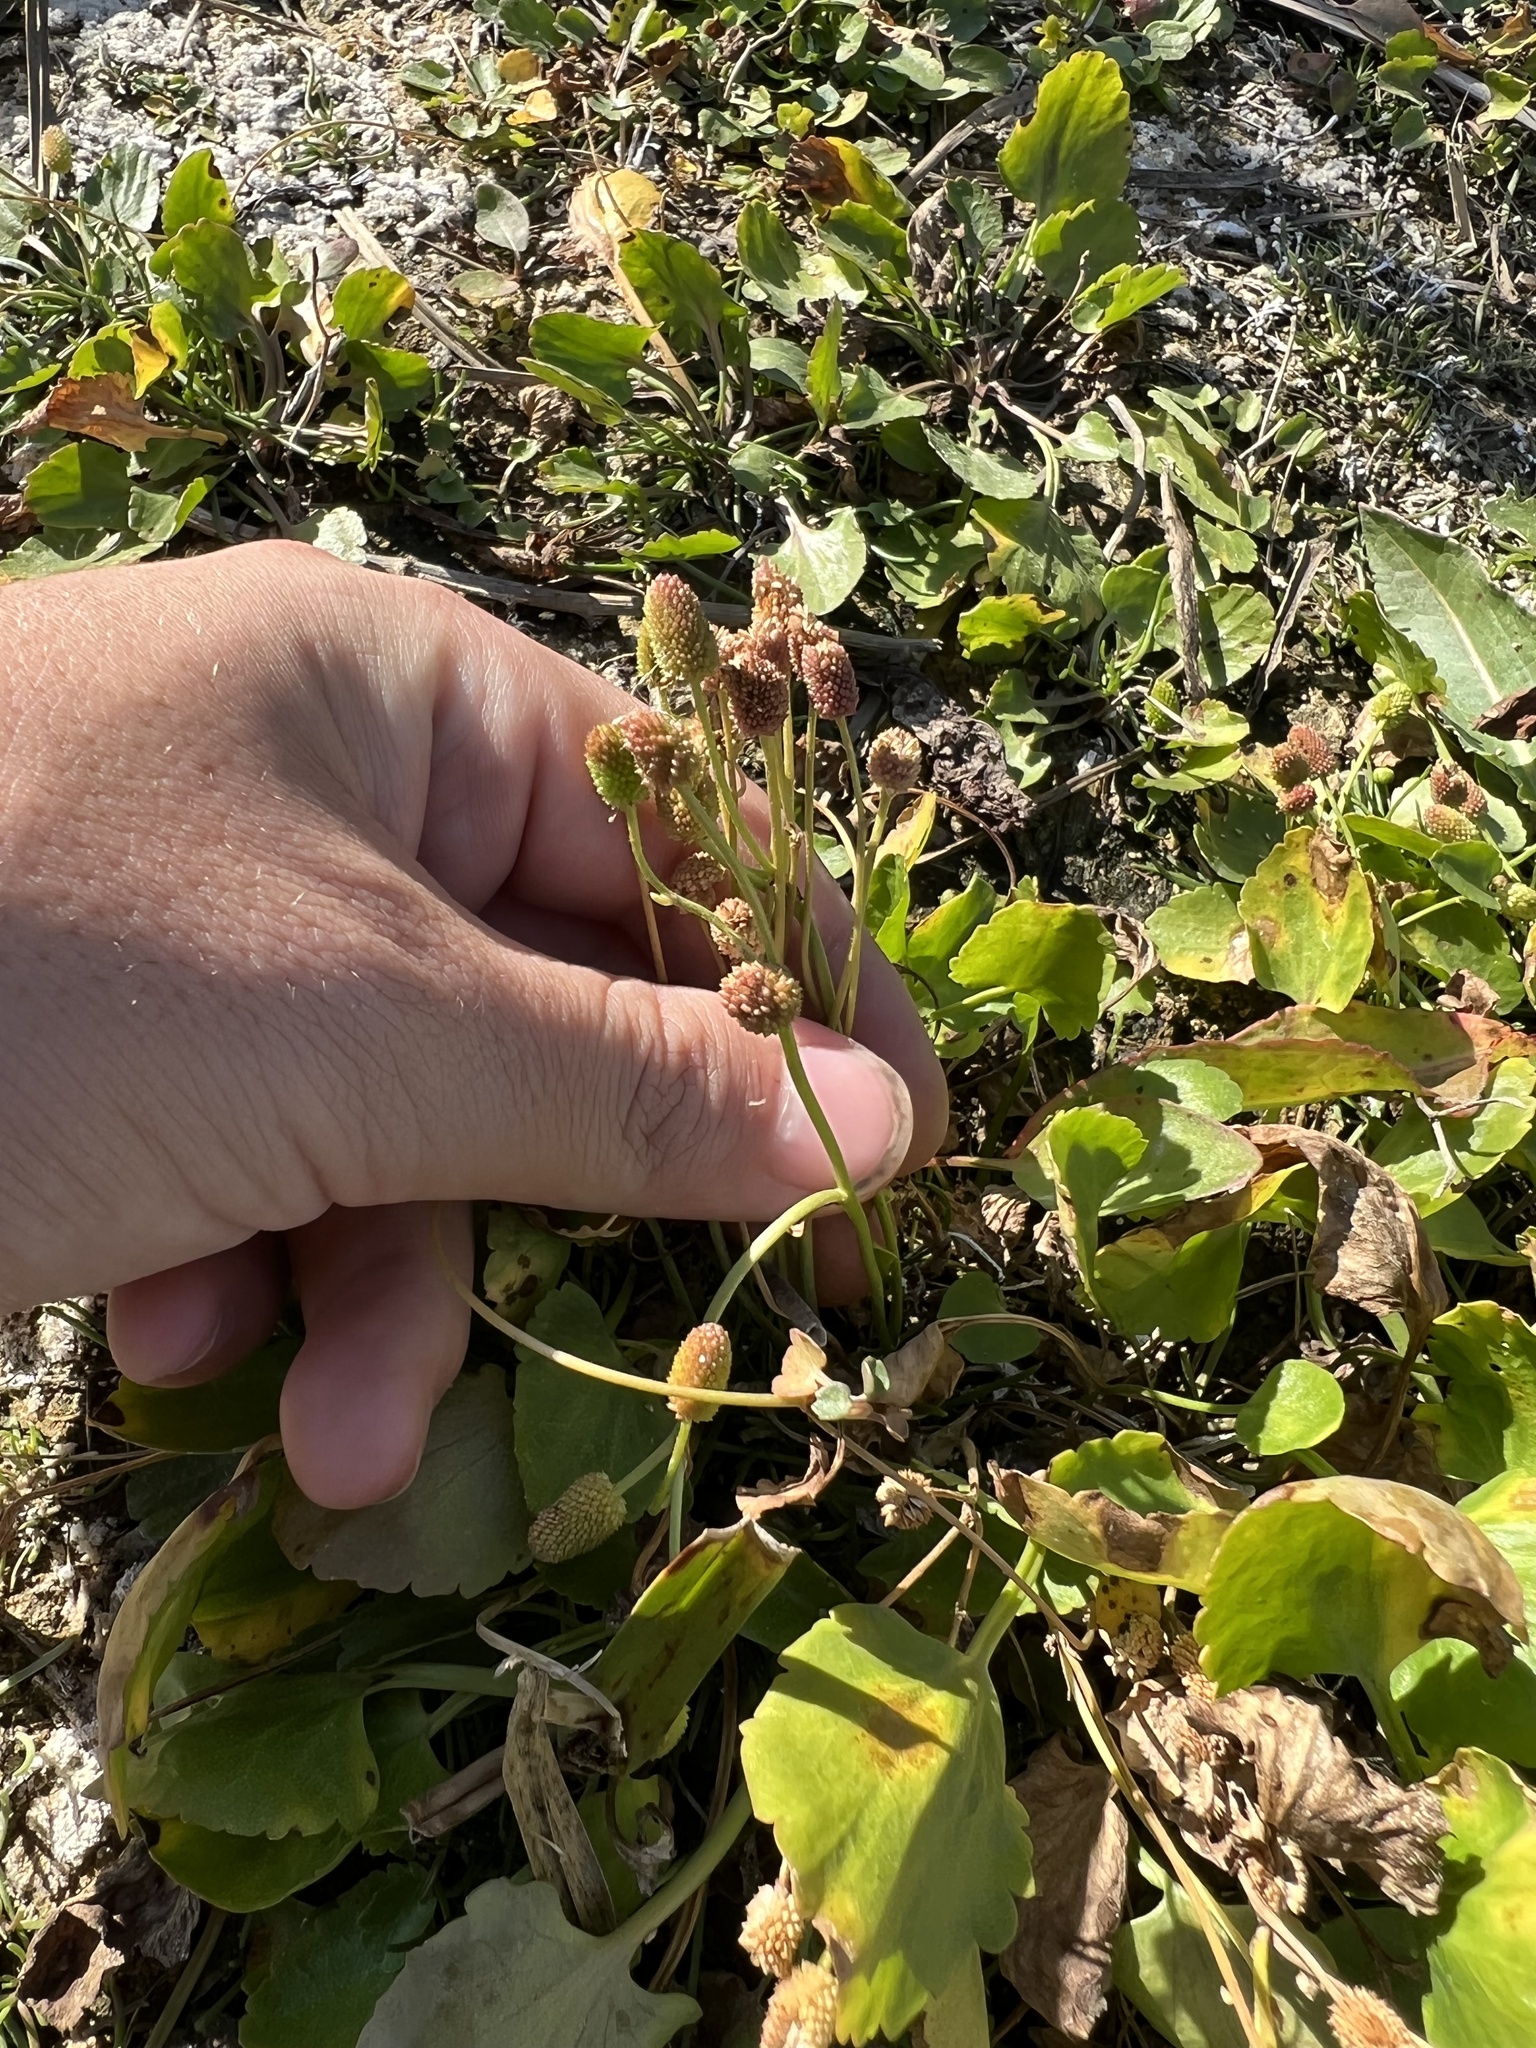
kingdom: Plantae
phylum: Tracheophyta
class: Magnoliopsida
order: Ranunculales
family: Ranunculaceae
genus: Halerpestes
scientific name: Halerpestes cymbalaria
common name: Seaside crowfoot
